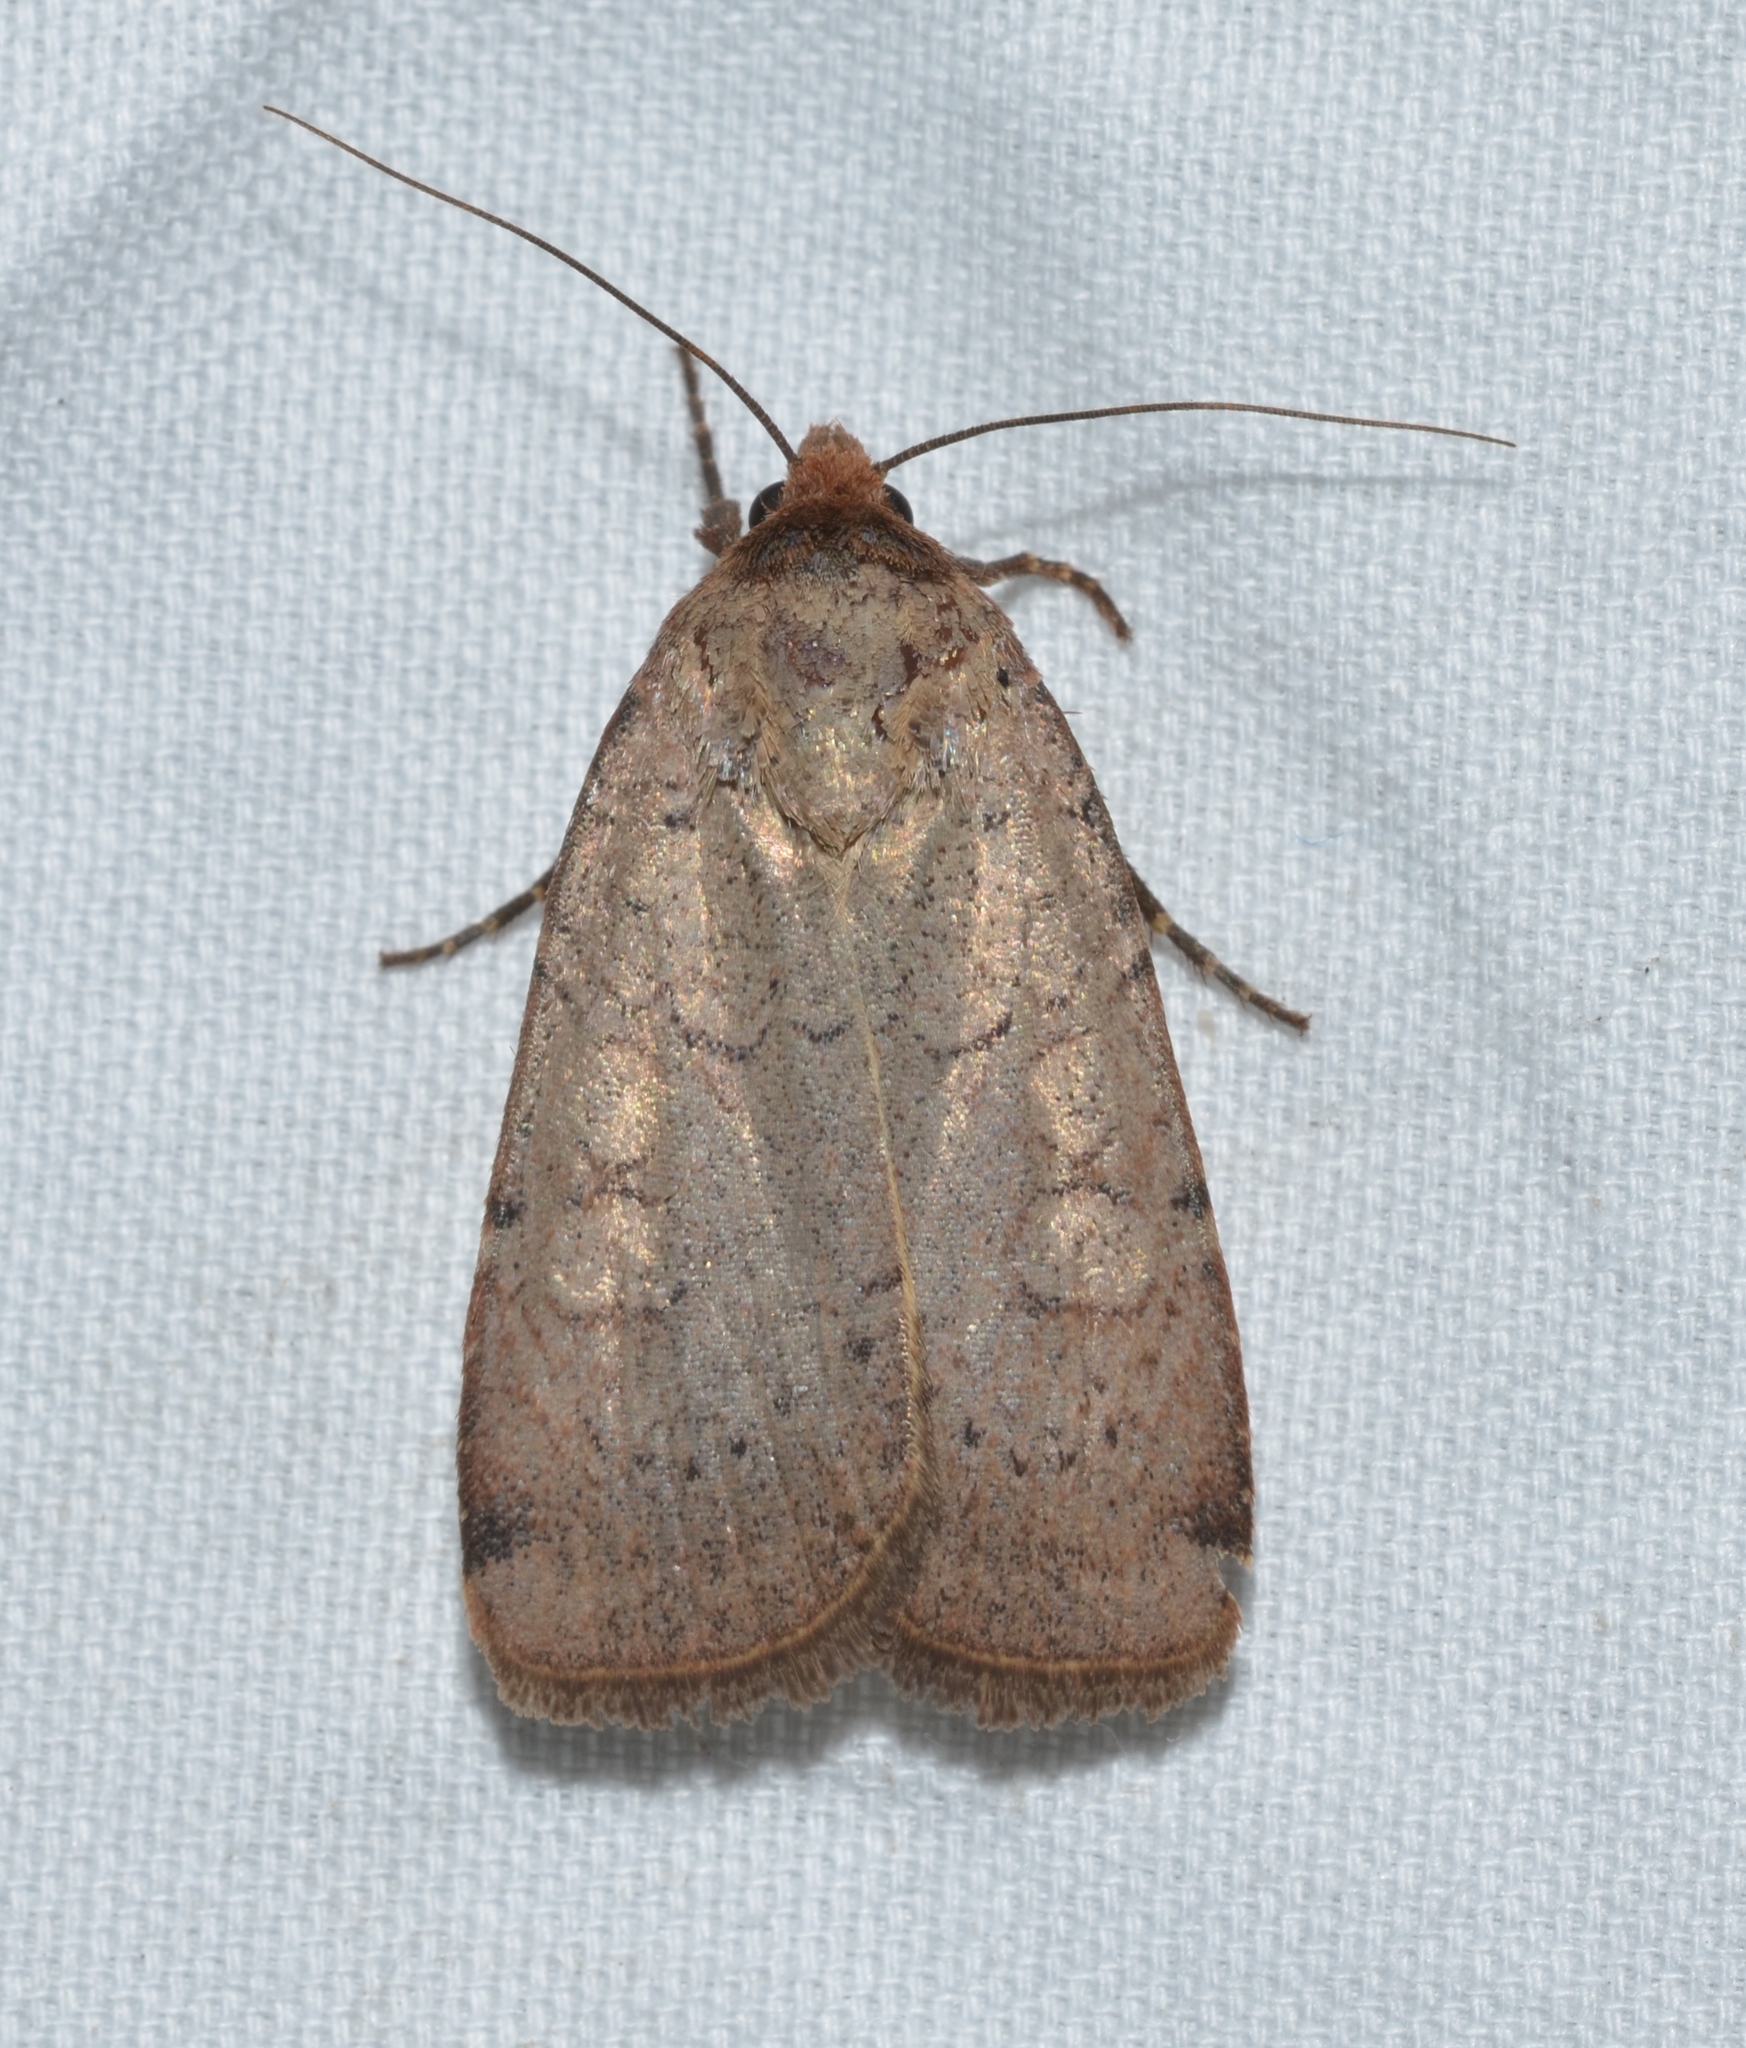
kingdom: Animalia
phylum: Arthropoda
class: Insecta
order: Lepidoptera
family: Noctuidae
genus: Protolampra
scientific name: Protolampra brunneicollis
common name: Brown-collared dart
